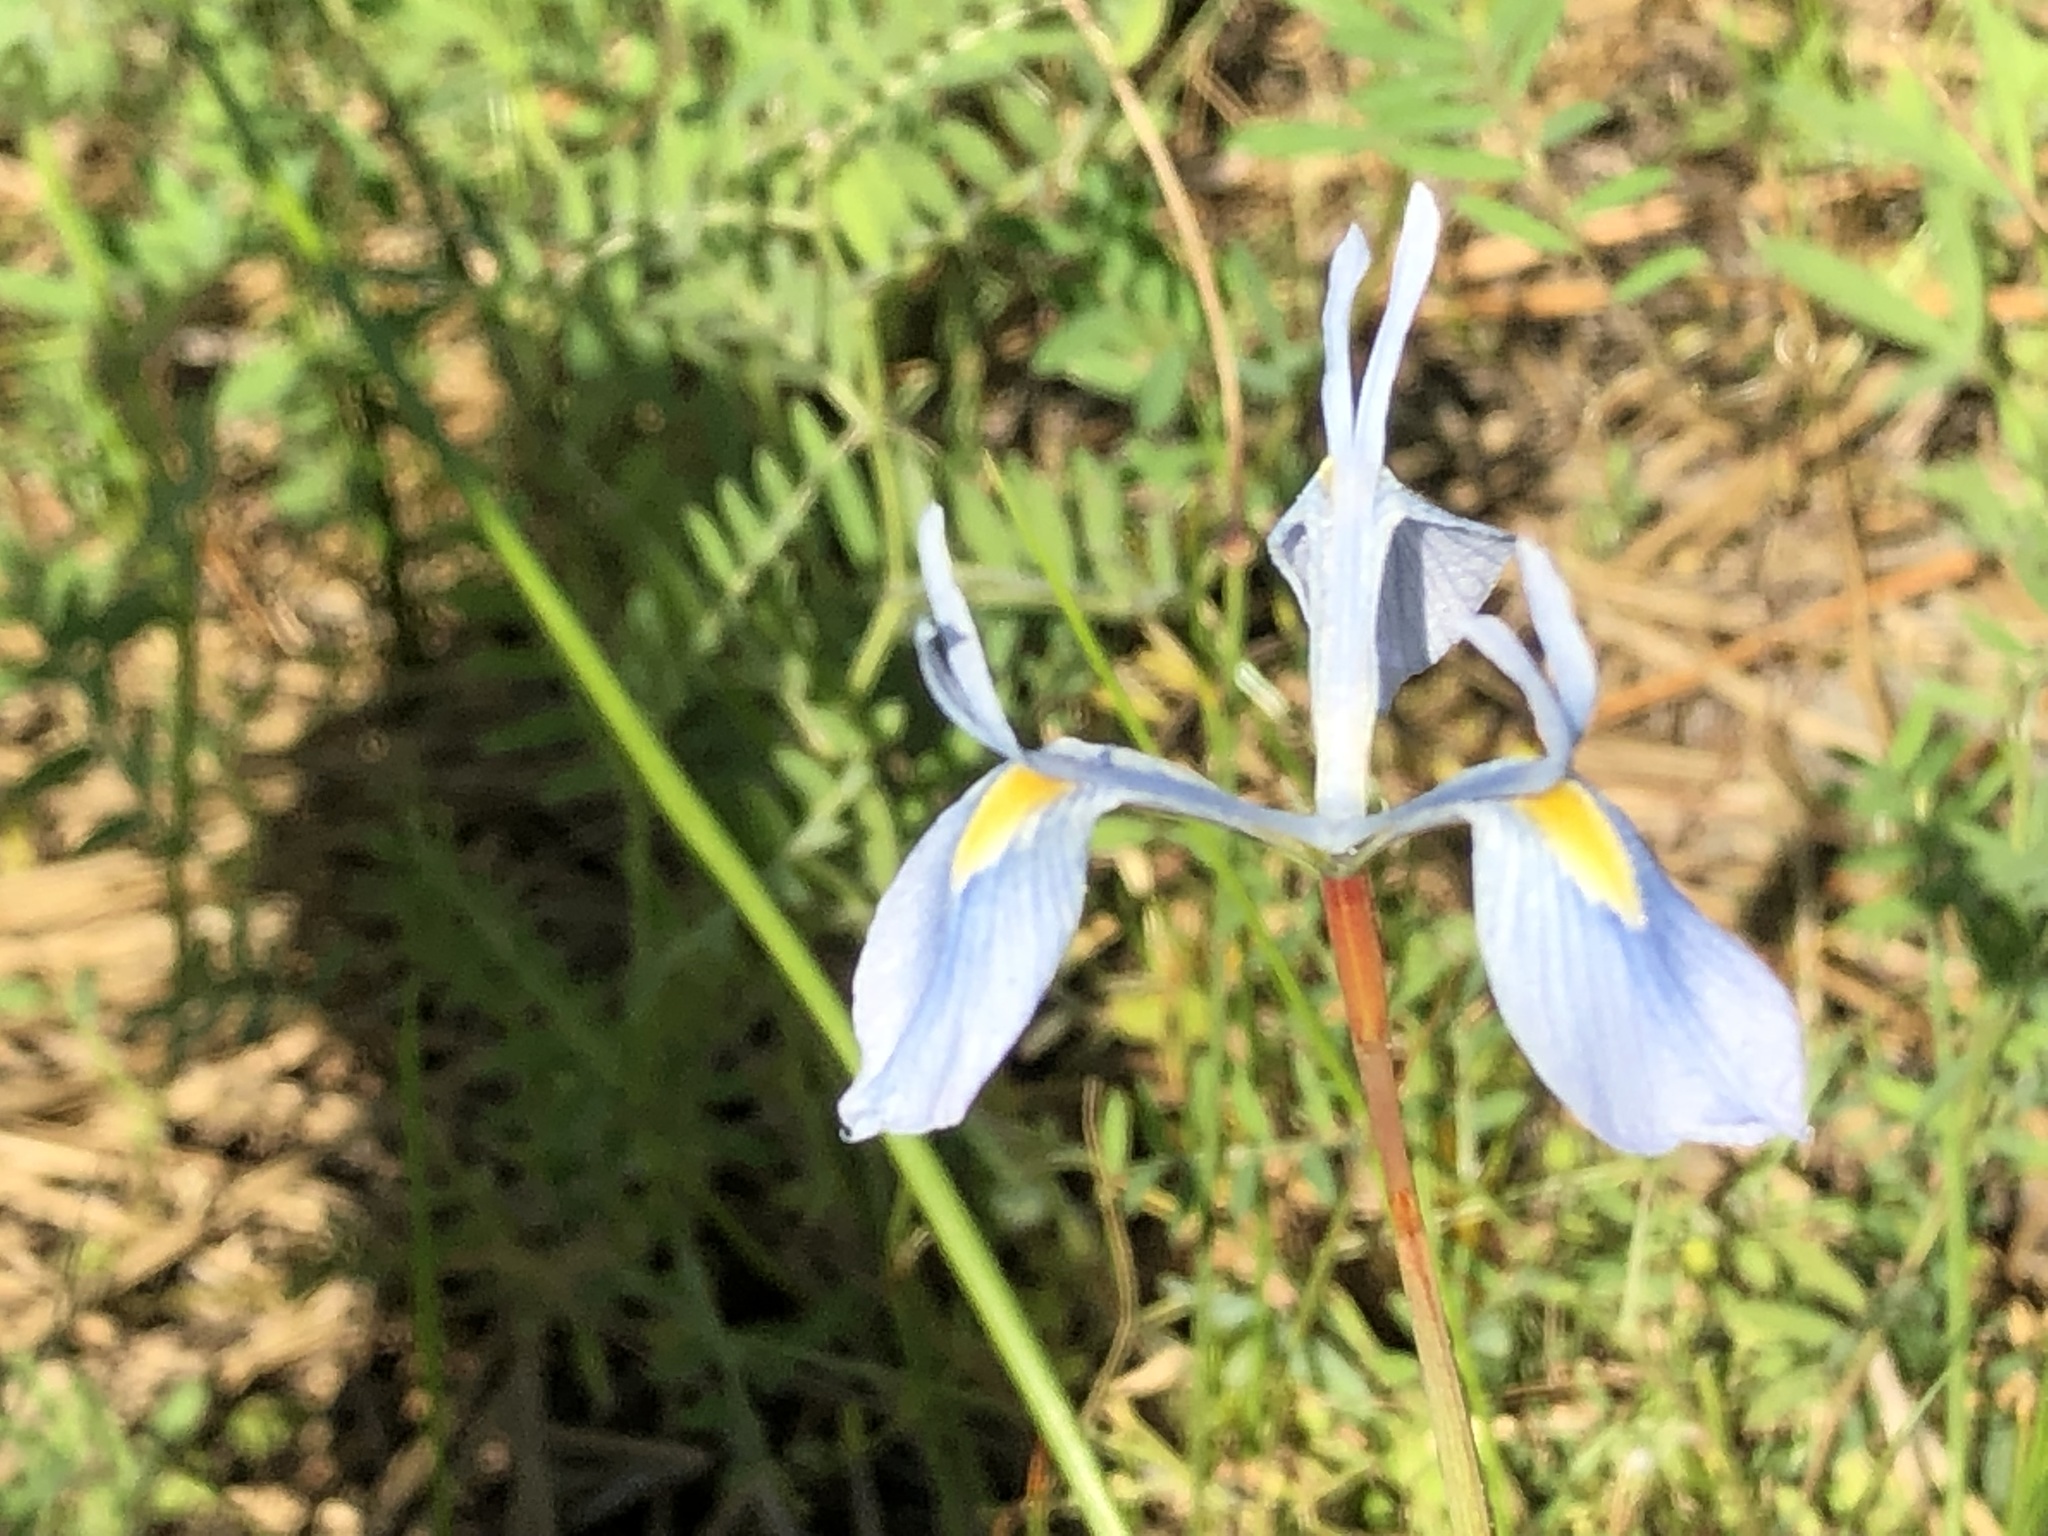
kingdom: Plantae
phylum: Tracheophyta
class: Liliopsida
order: Asparagales
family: Iridaceae
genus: Moraea
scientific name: Moraea tripetala
